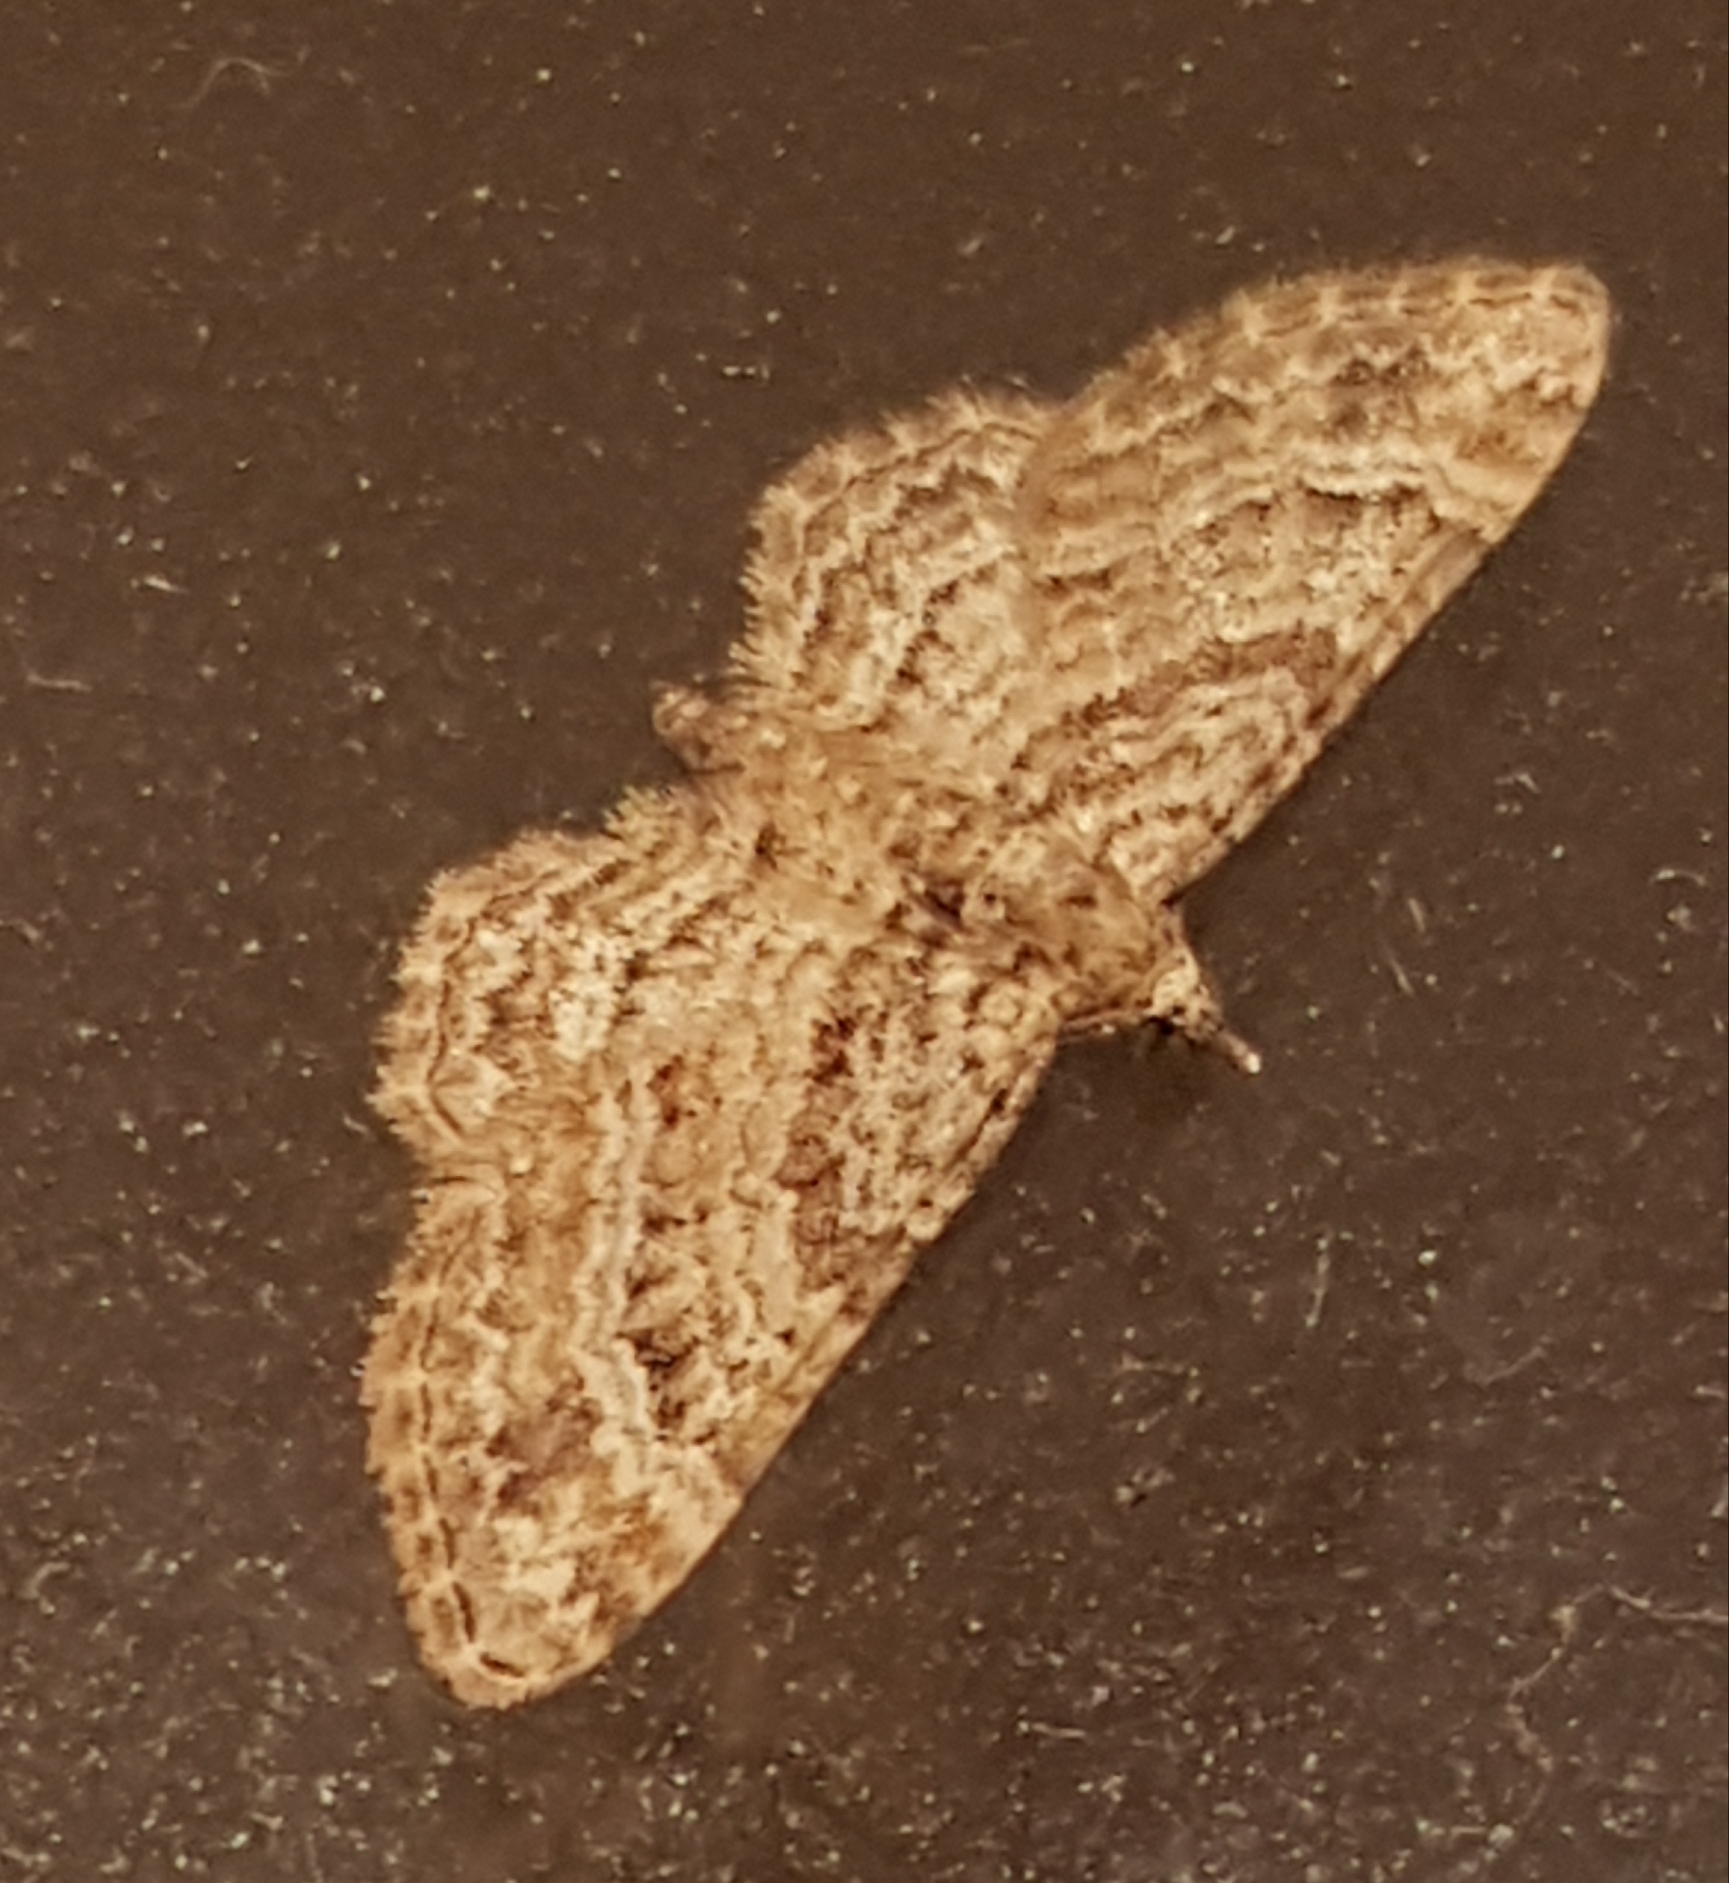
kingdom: Animalia
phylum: Arthropoda
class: Insecta
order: Lepidoptera
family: Geometridae
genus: Gymnoscelis
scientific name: Gymnoscelis rufifasciata
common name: Double-striped pug
